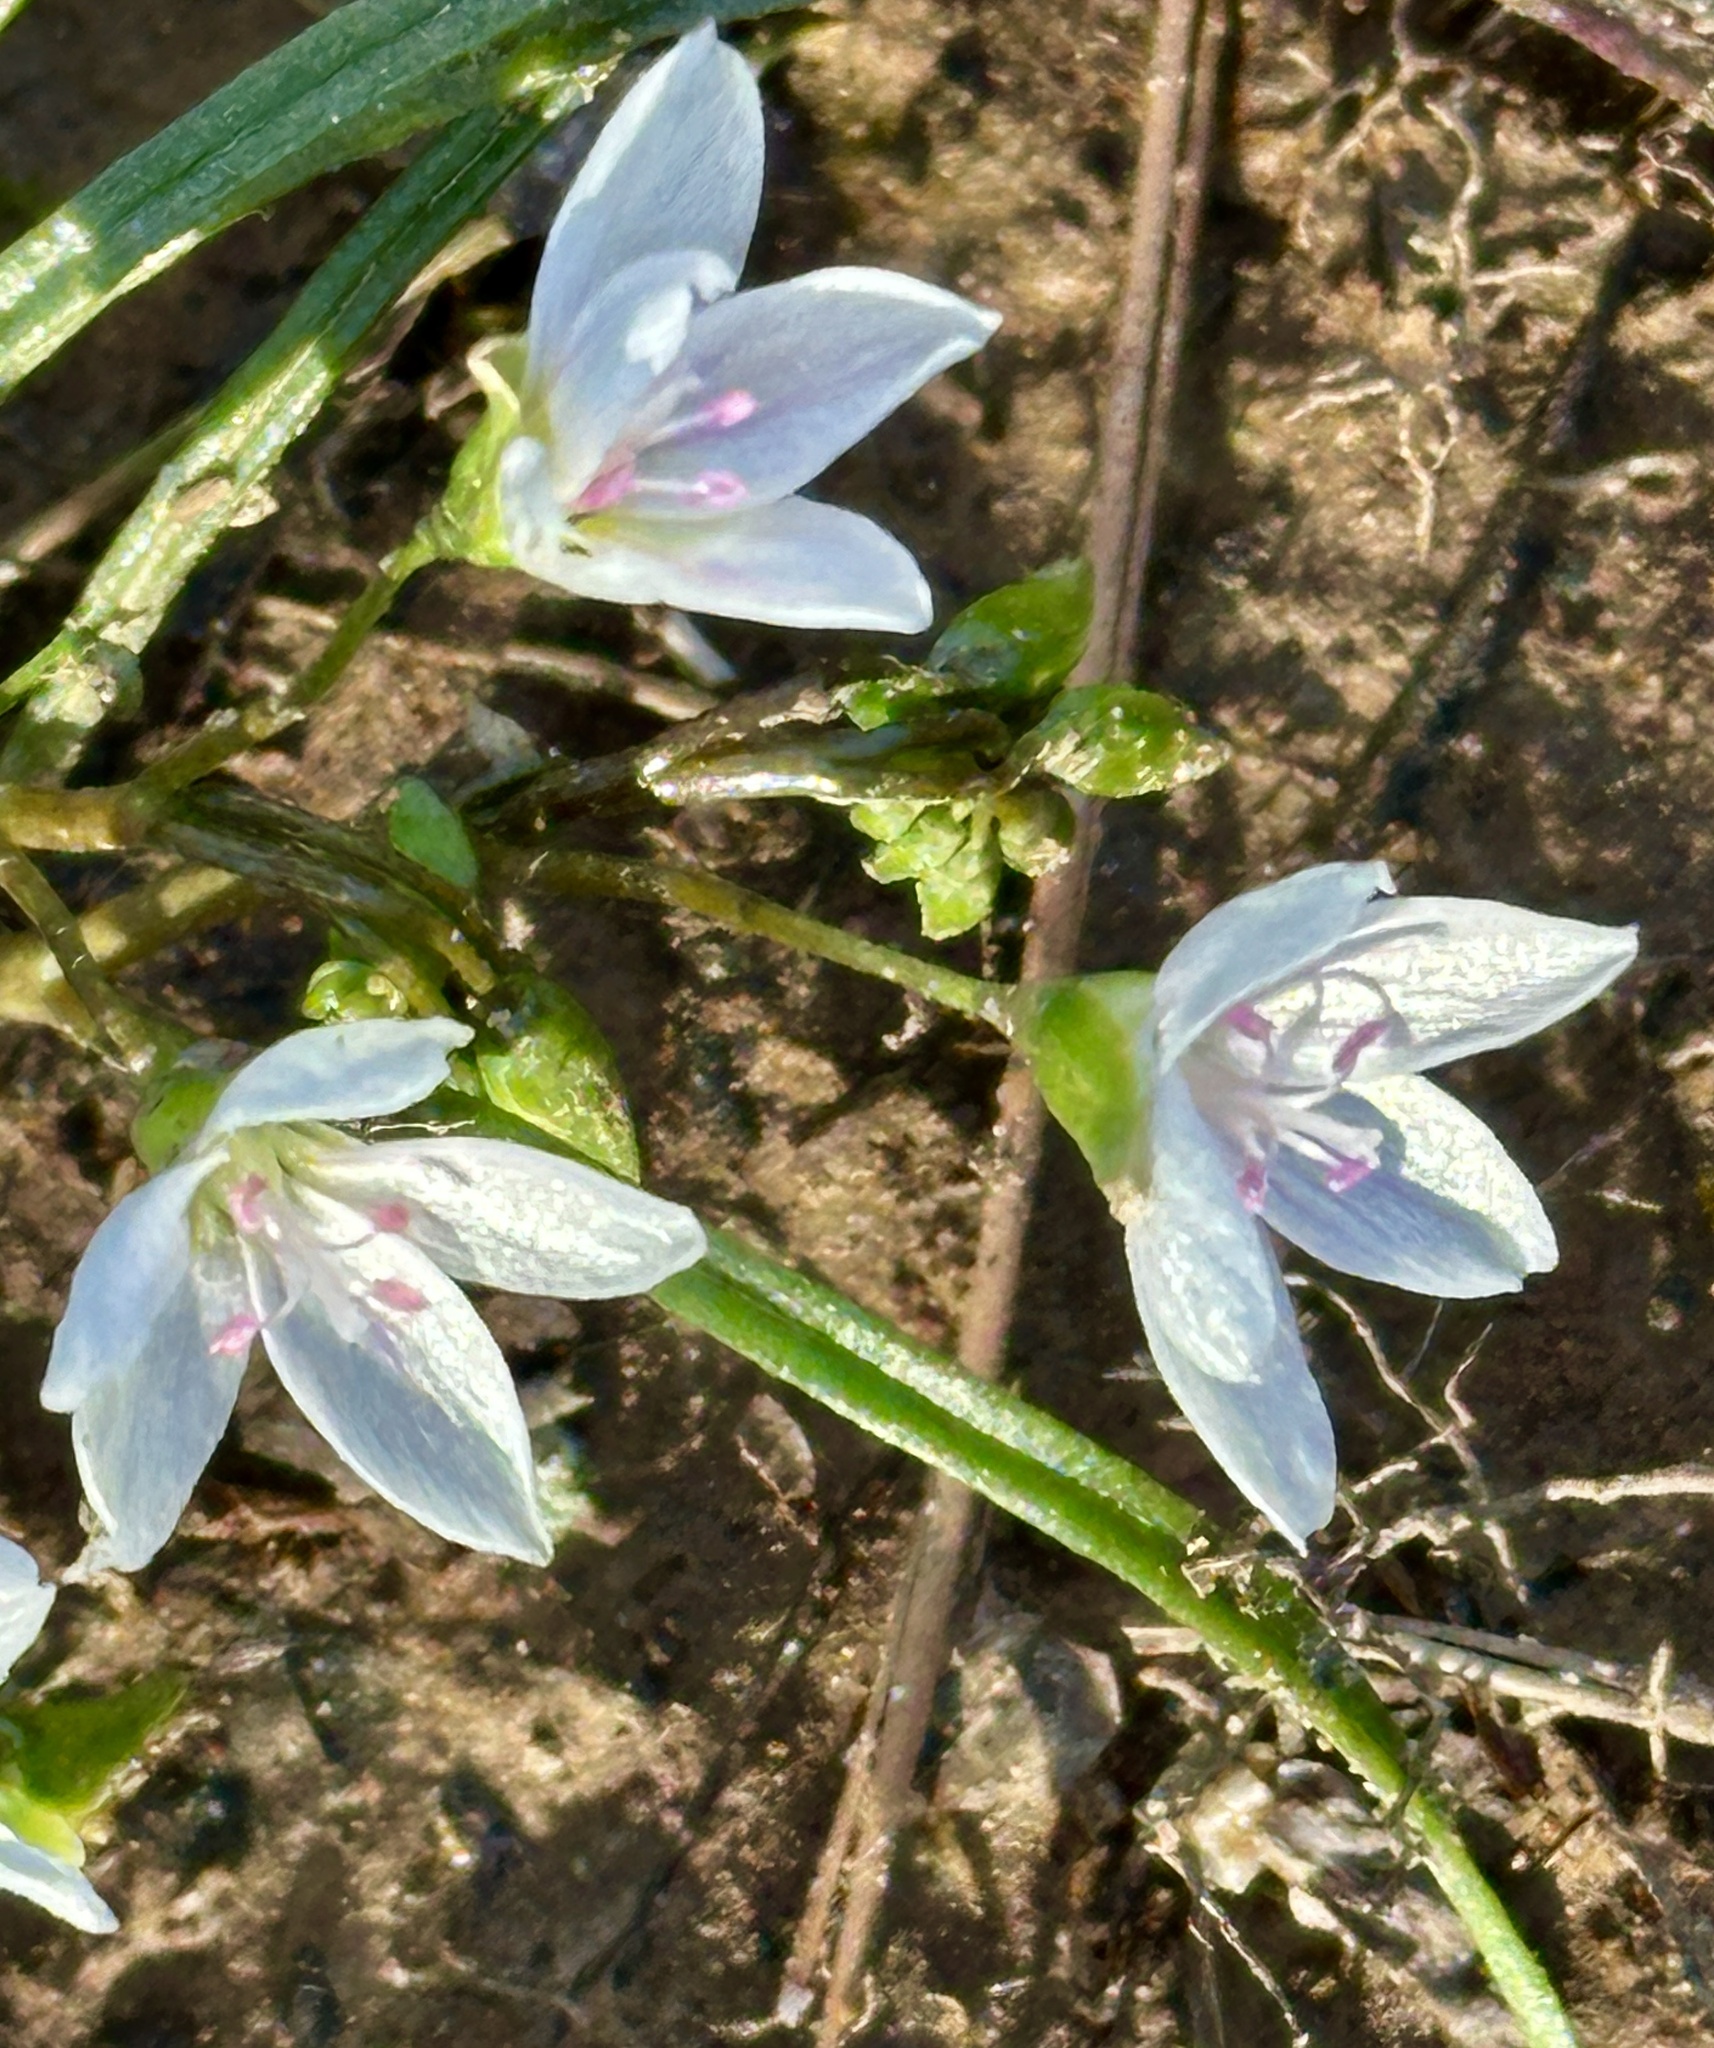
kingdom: Plantae
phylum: Tracheophyta
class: Magnoliopsida
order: Caryophyllales
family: Montiaceae
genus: Claytonia
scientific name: Claytonia virginica
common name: Virginia springbeauty
